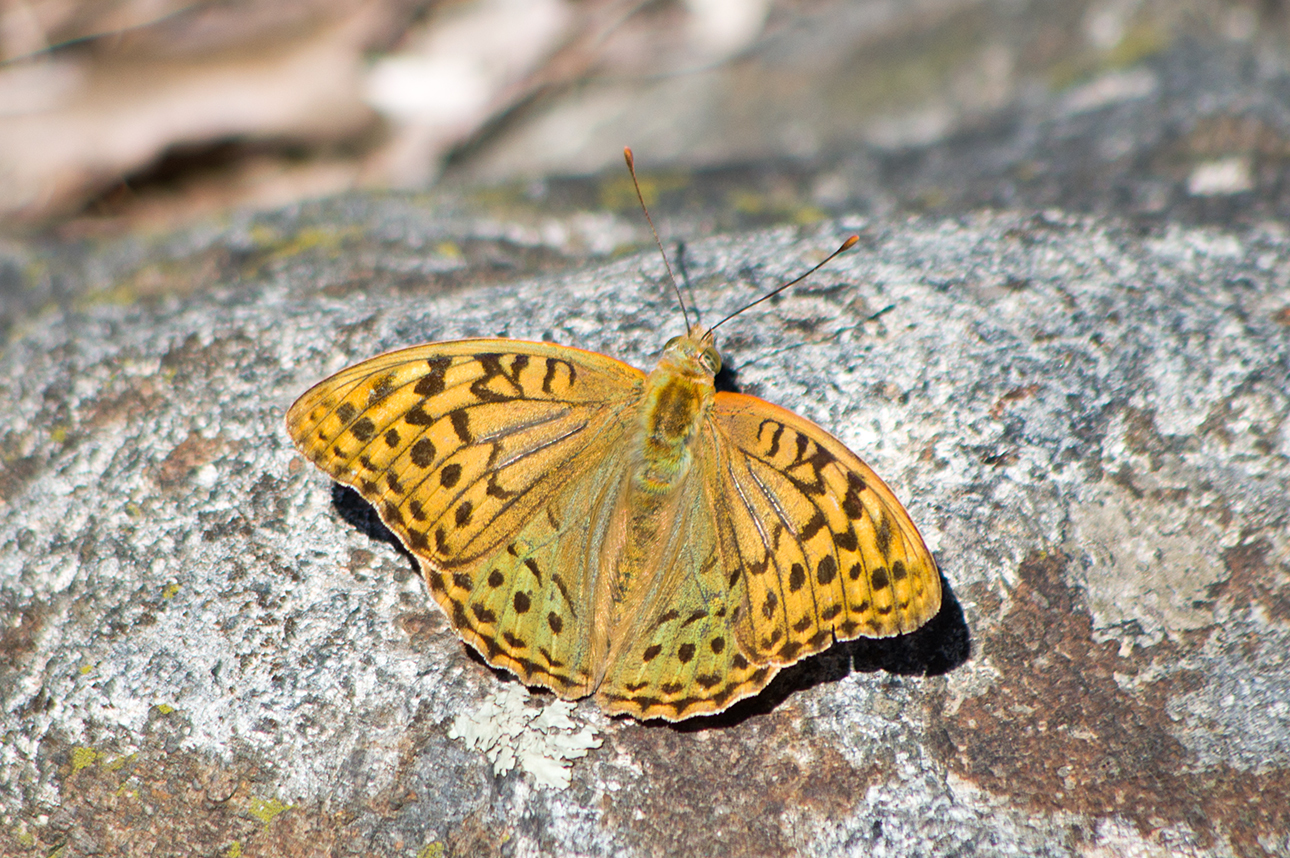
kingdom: Animalia
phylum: Arthropoda
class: Insecta
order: Lepidoptera
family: Nymphalidae
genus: Damora
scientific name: Damora pandora
